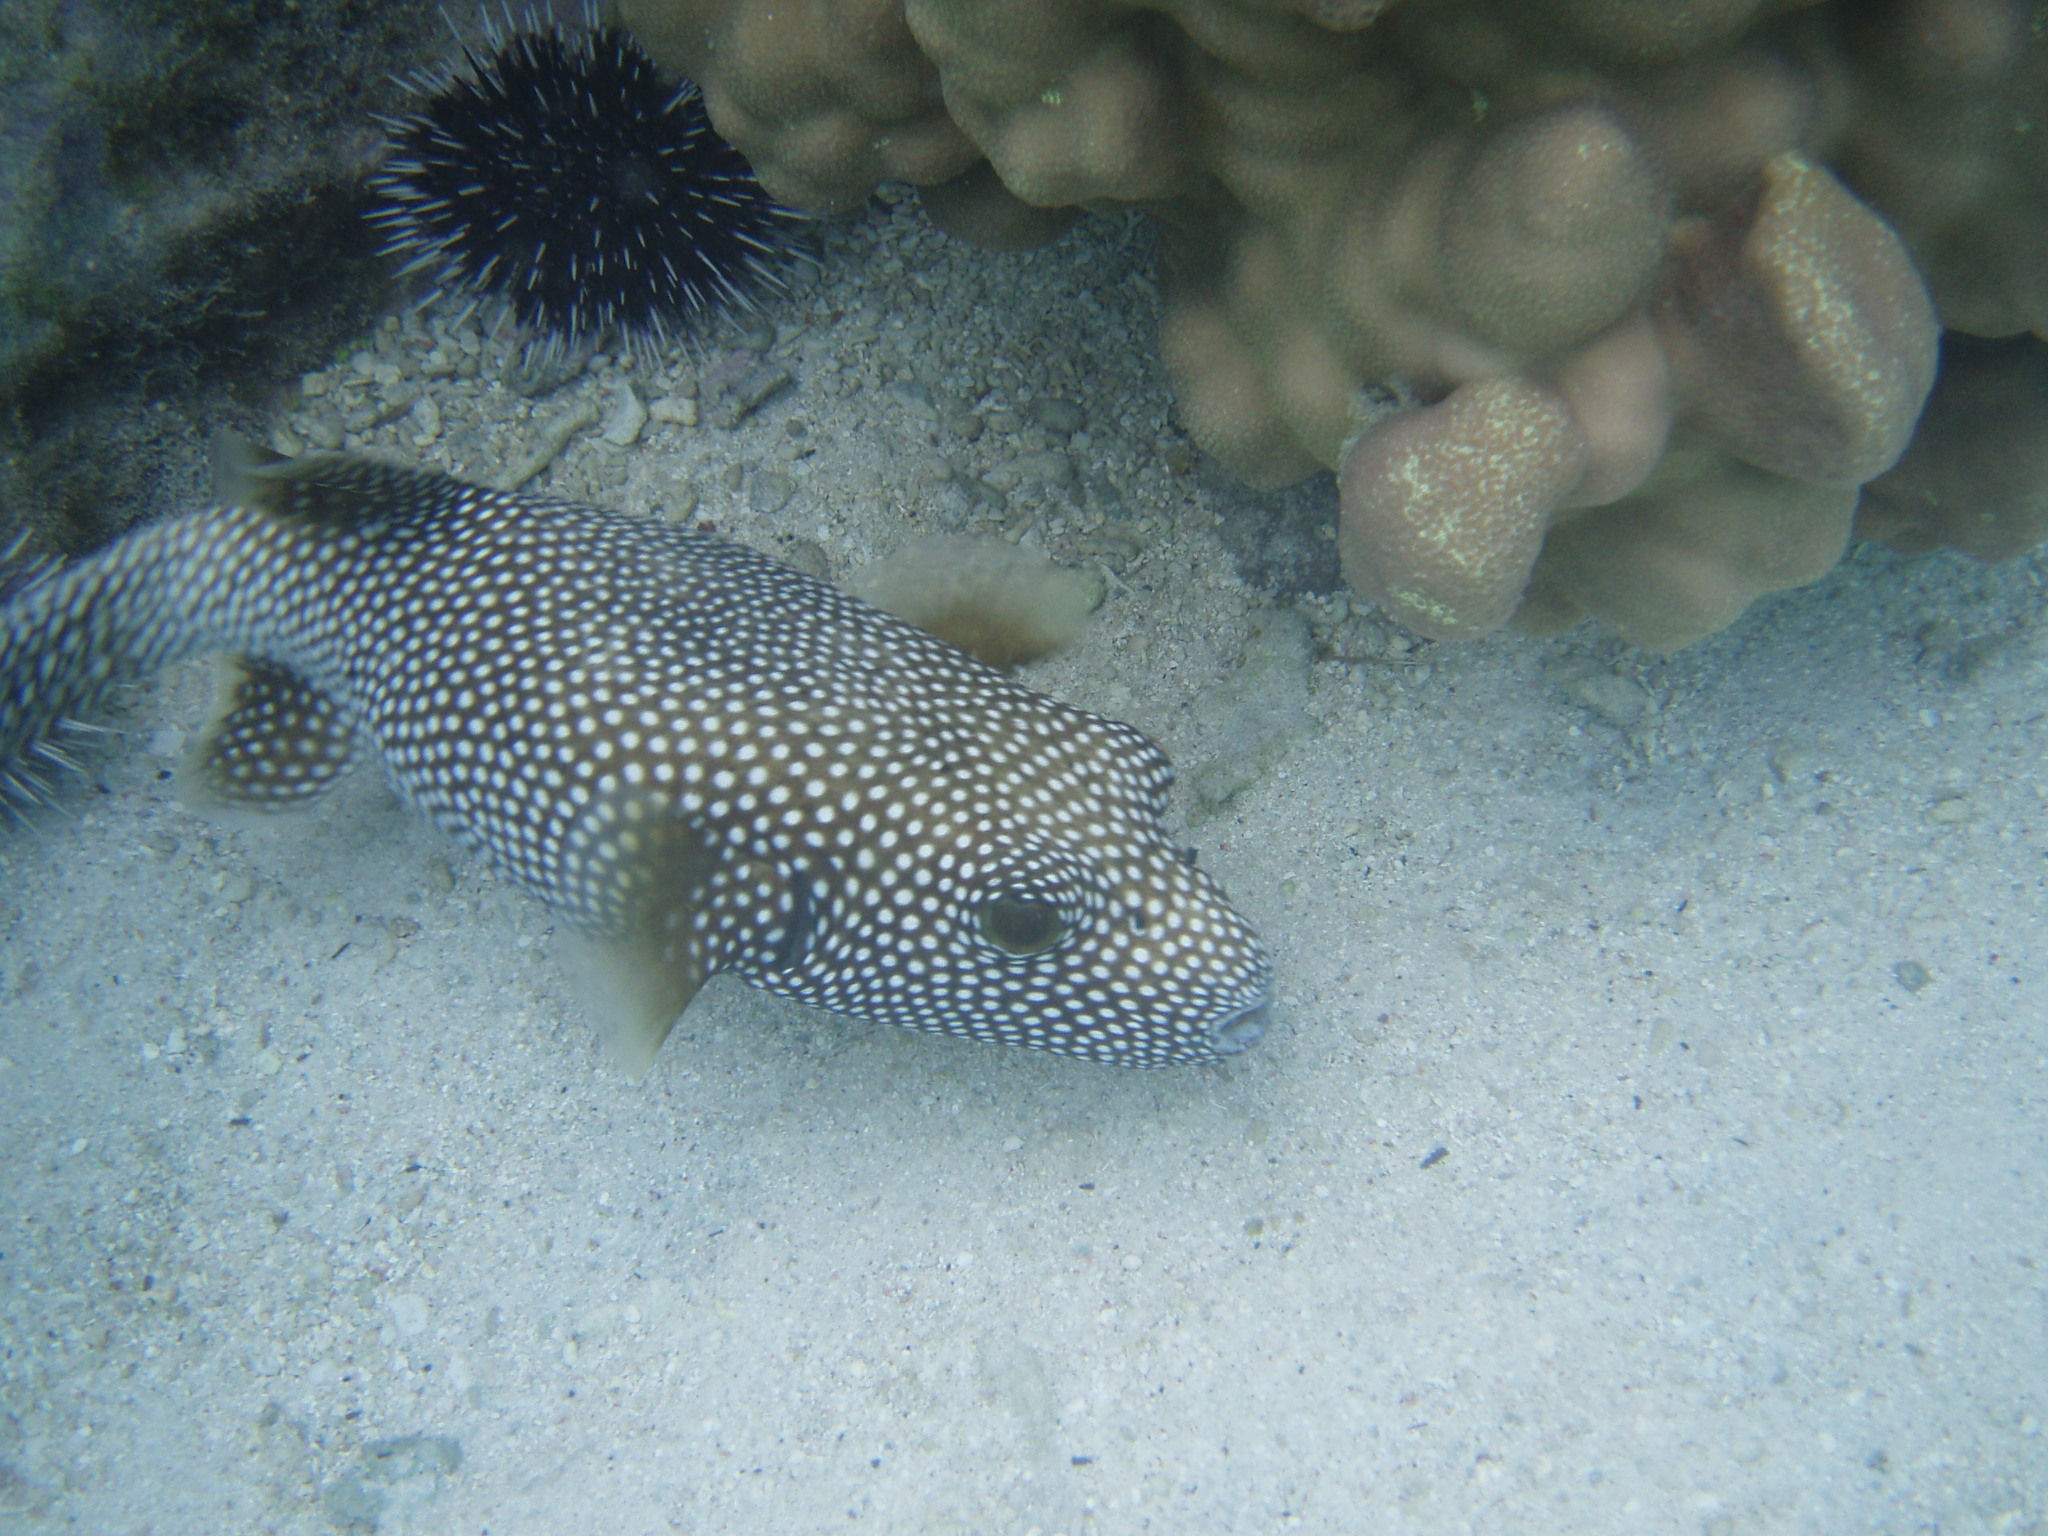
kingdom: Animalia
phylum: Chordata
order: Tetraodontiformes
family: Tetraodontidae
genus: Arothron
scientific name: Arothron meleagris
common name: Guinea-fowl pufferfish
